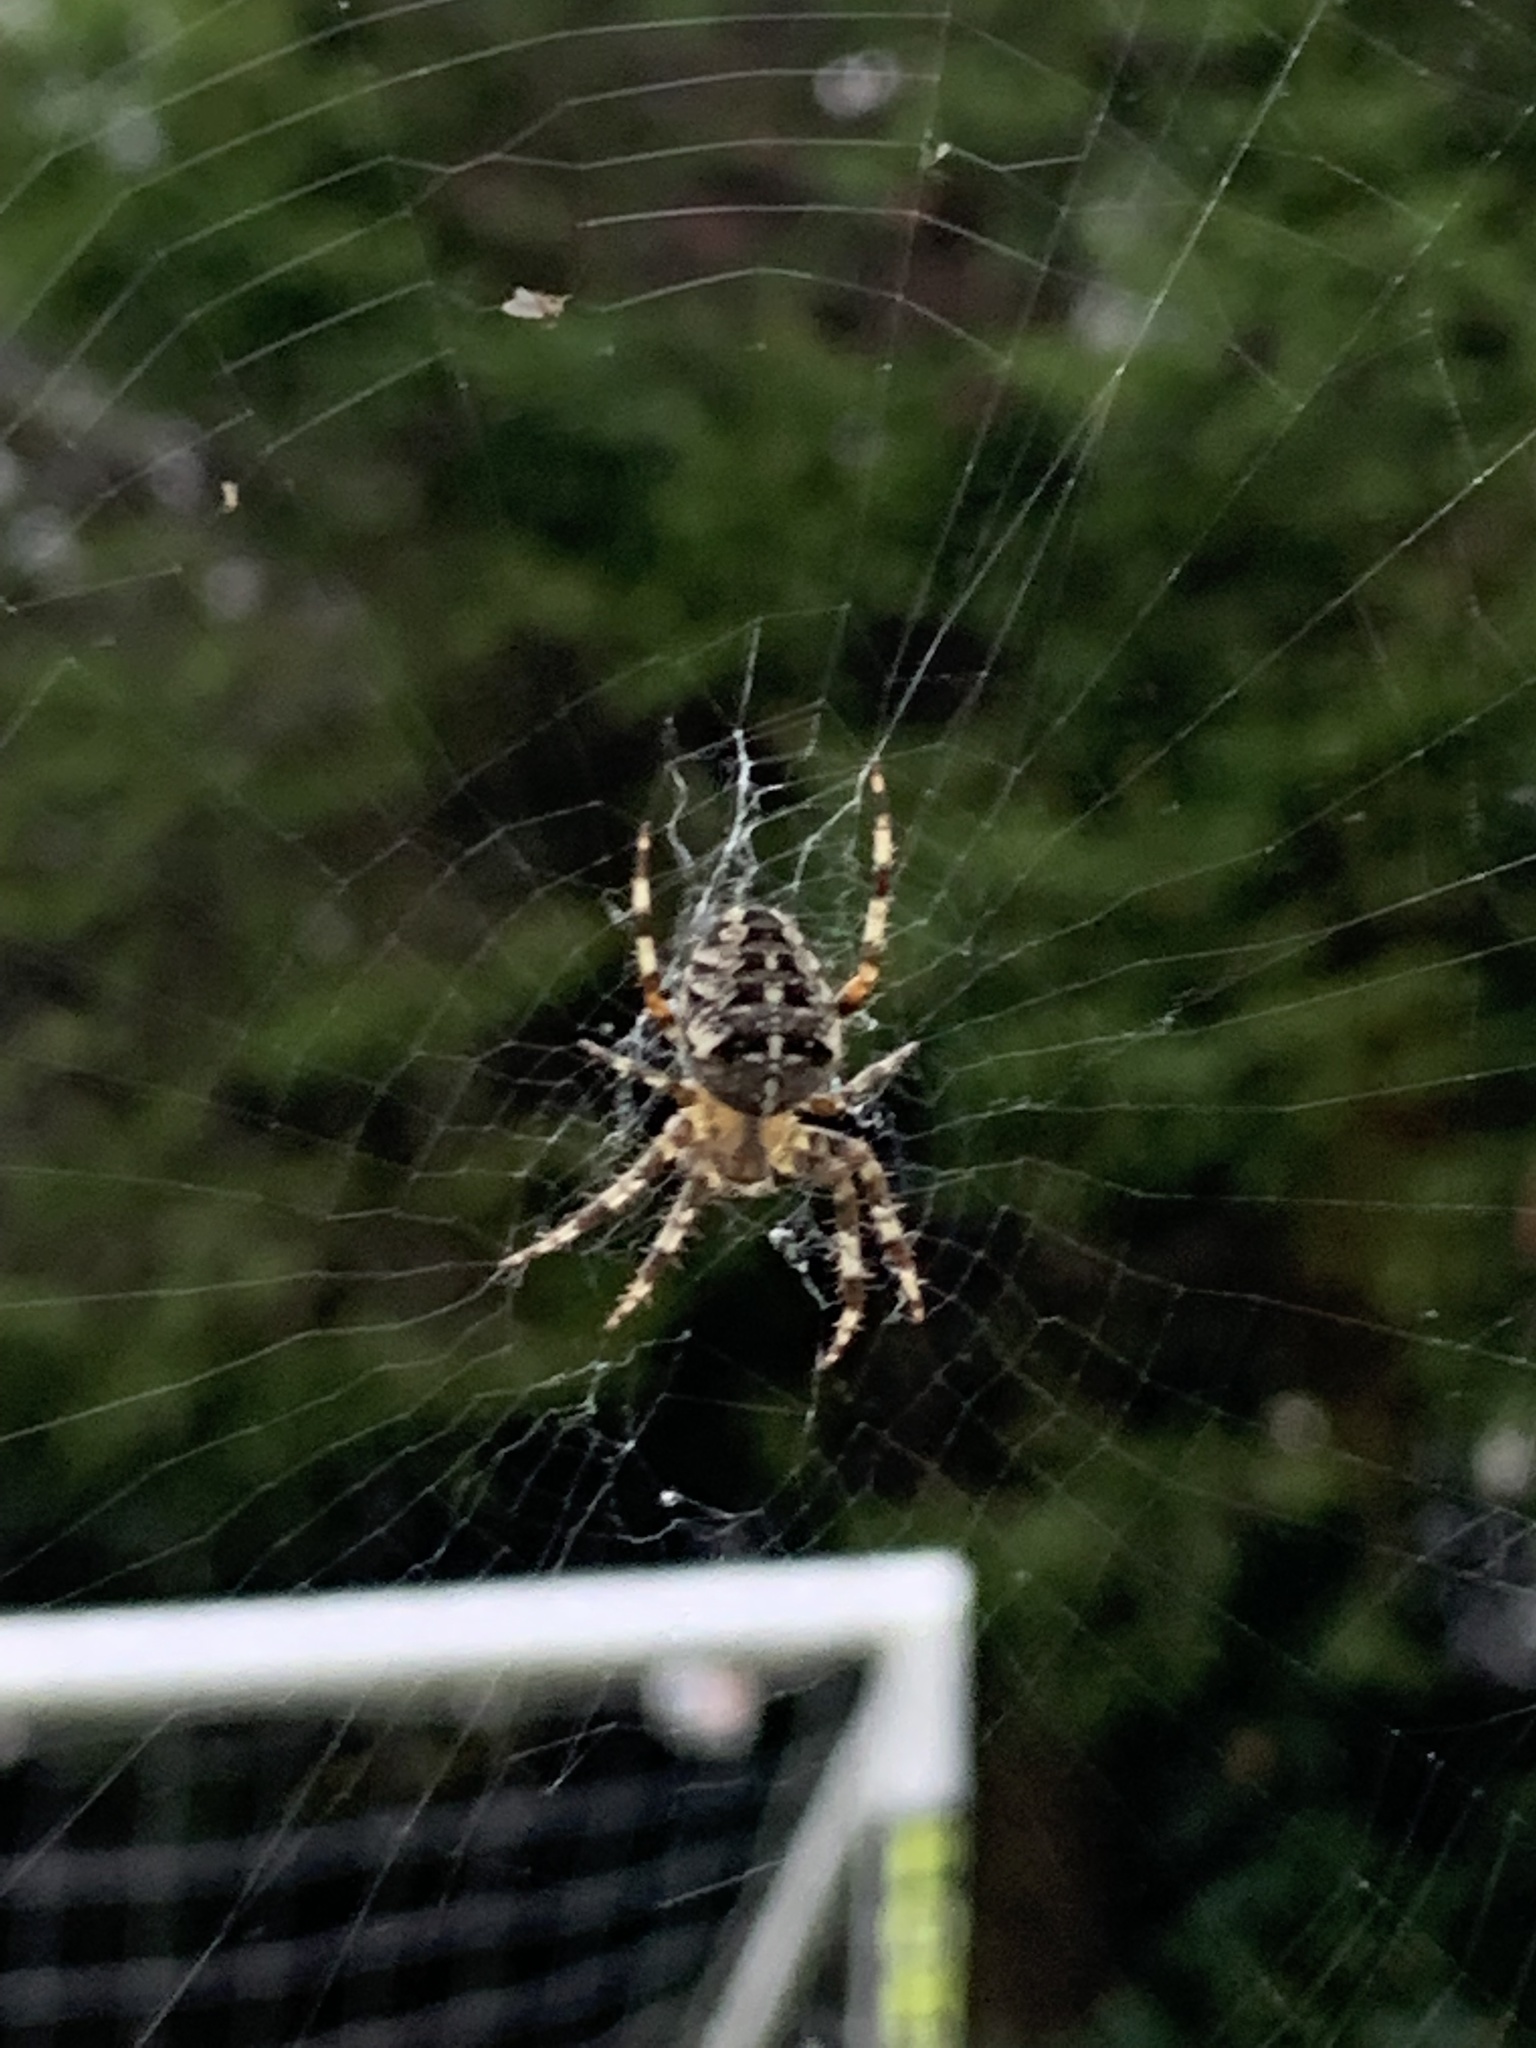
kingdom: Animalia
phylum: Arthropoda
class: Arachnida
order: Araneae
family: Araneidae
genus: Araneus
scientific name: Araneus diadematus
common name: Cross orbweaver
